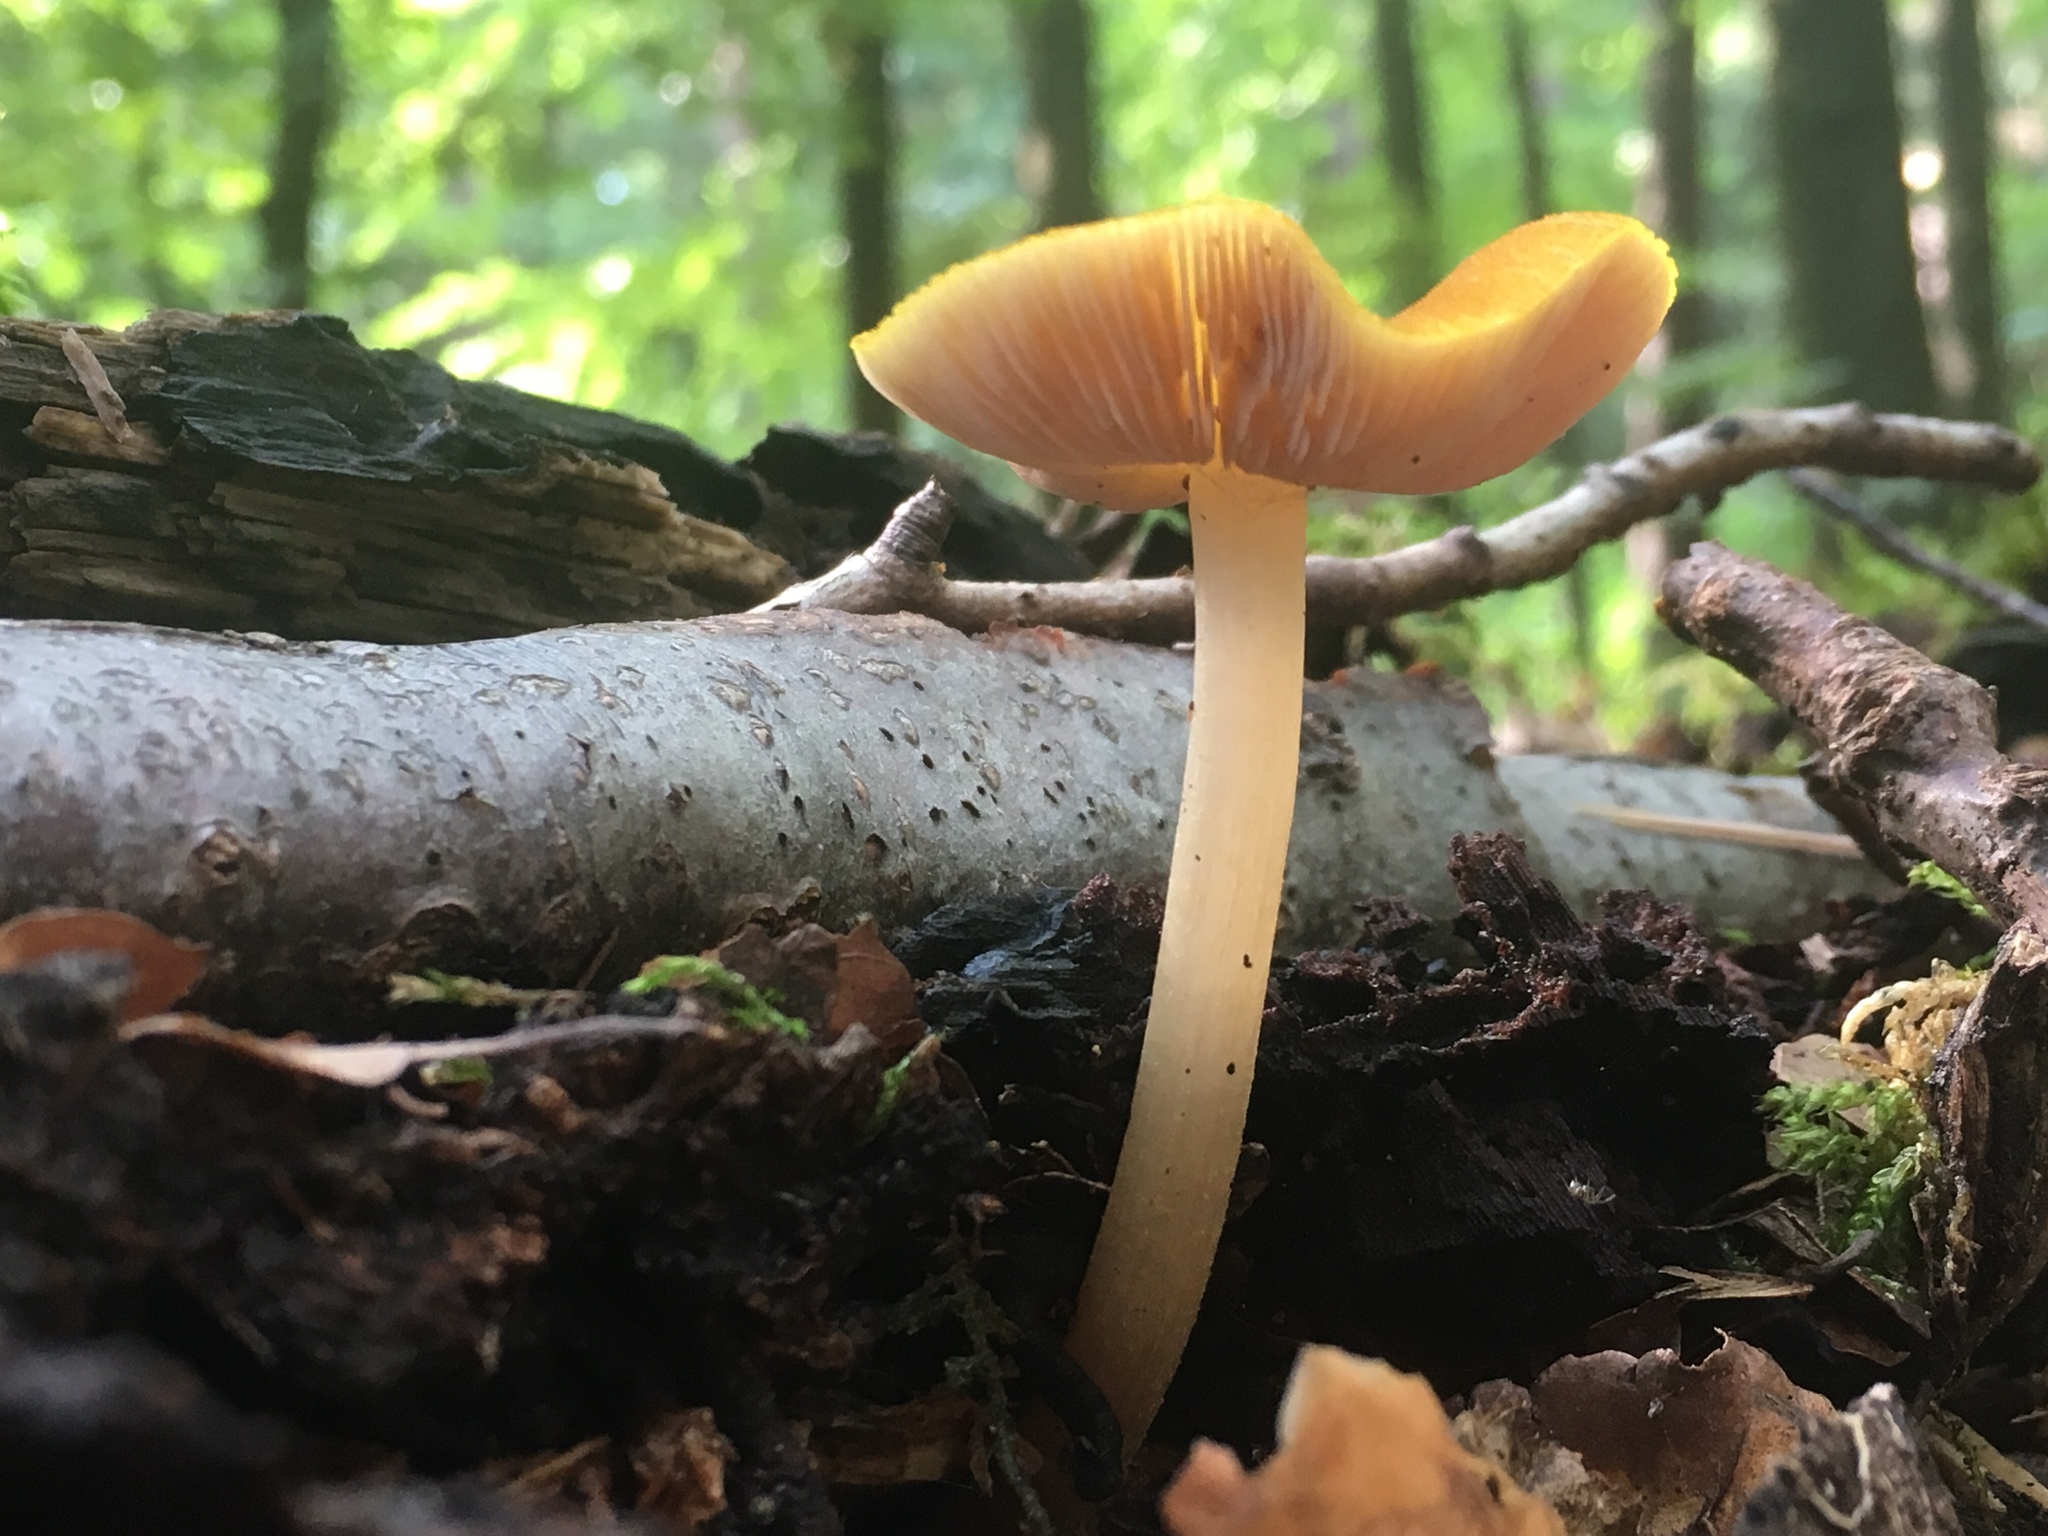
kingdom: Fungi
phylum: Basidiomycota
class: Agaricomycetes
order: Agaricales
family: Pluteaceae
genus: Pluteus
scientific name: Pluteus leoninus
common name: Lion shield
